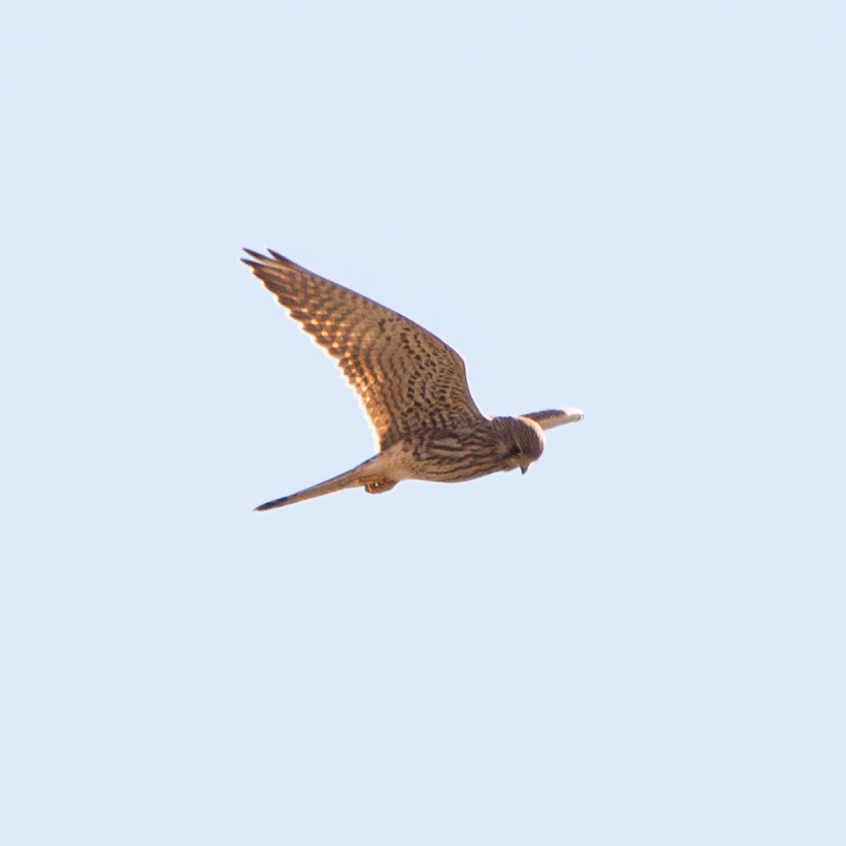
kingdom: Animalia
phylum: Chordata
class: Aves
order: Falconiformes
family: Falconidae
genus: Falco
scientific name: Falco tinnunculus
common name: Common kestrel
